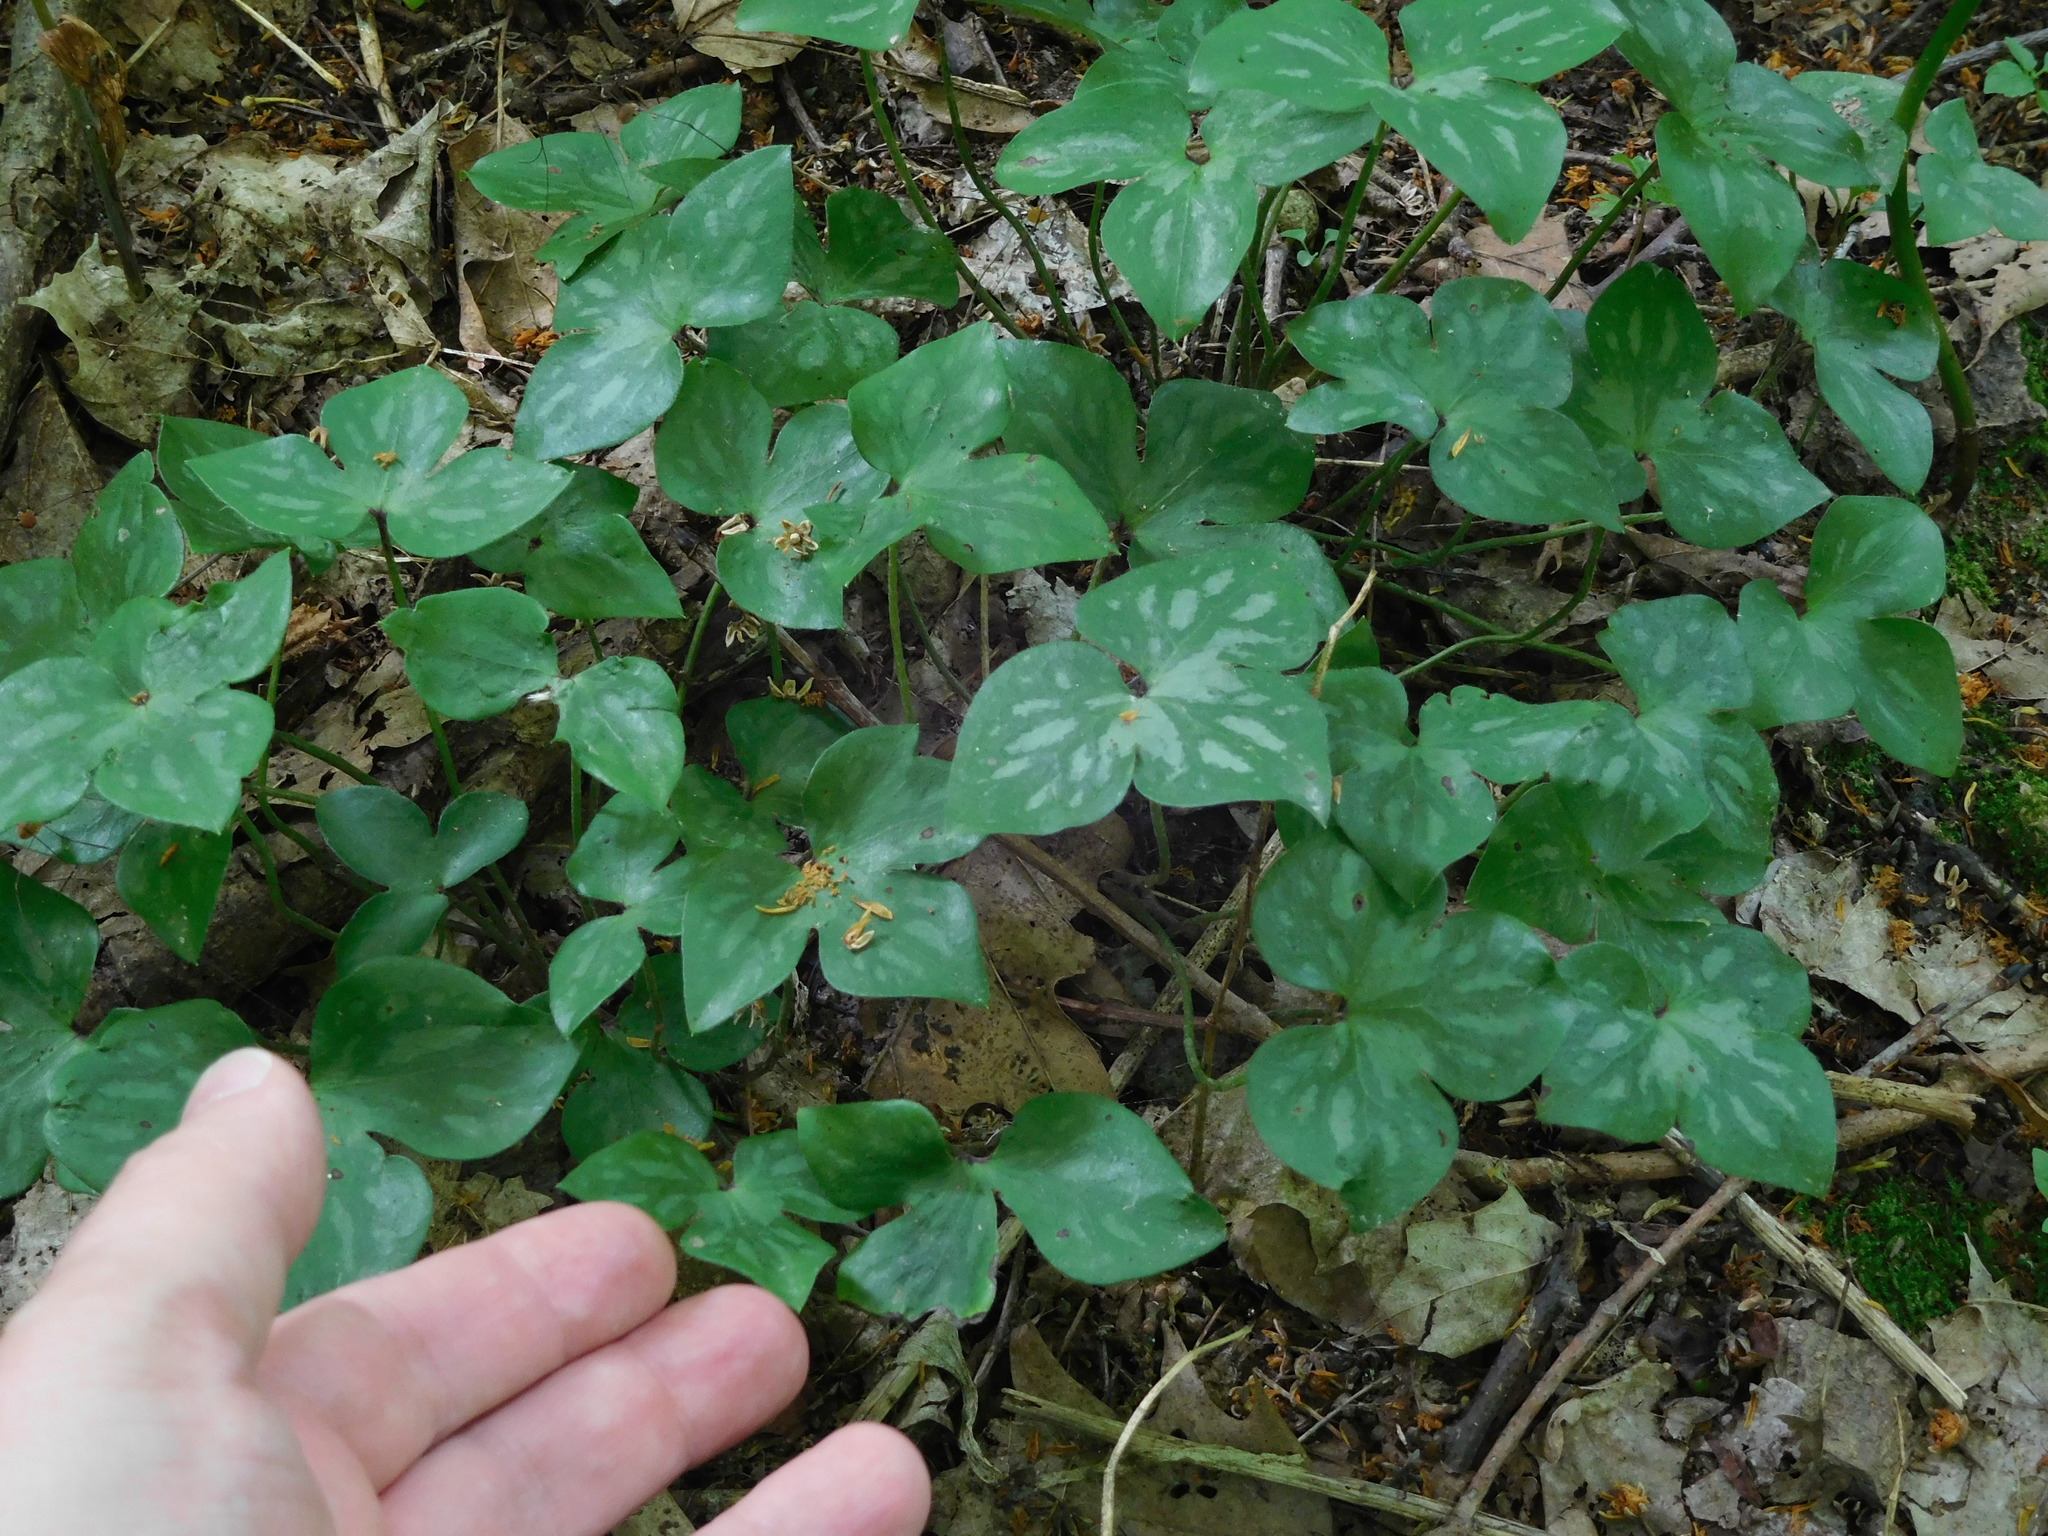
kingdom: Plantae
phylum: Tracheophyta
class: Magnoliopsida
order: Ranunculales
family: Ranunculaceae
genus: Hepatica
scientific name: Hepatica acutiloba
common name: Sharp-lobed hepatica
